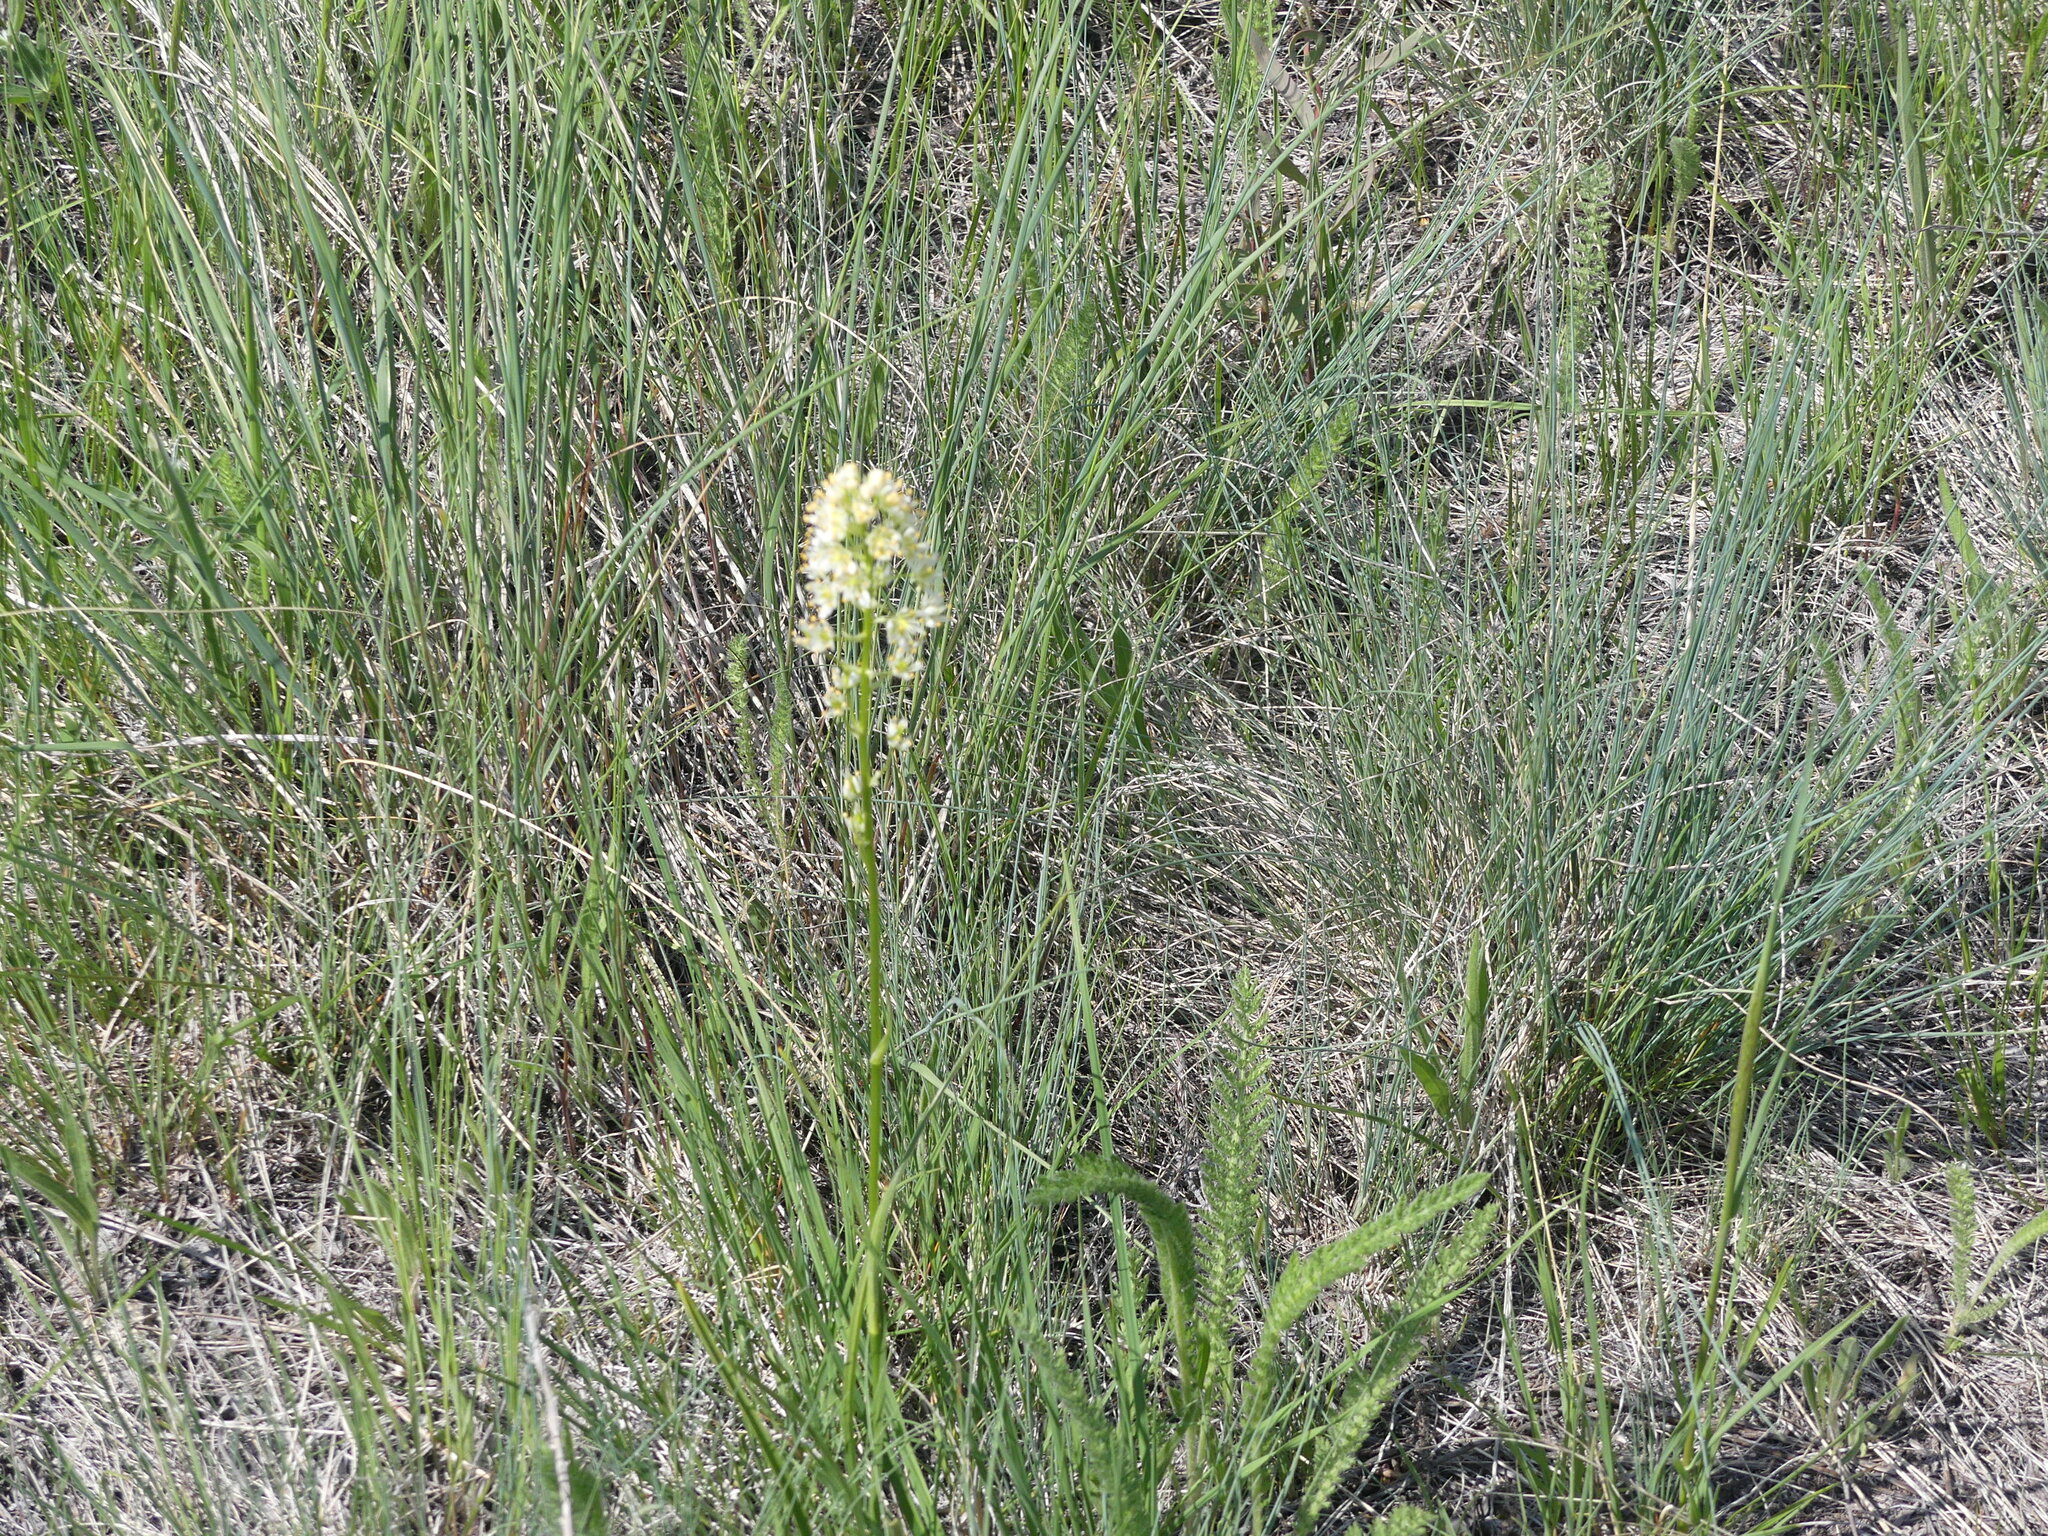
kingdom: Plantae
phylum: Tracheophyta
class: Liliopsida
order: Liliales
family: Melanthiaceae
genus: Toxicoscordion
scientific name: Toxicoscordion venenosum
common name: Meadow death camas
